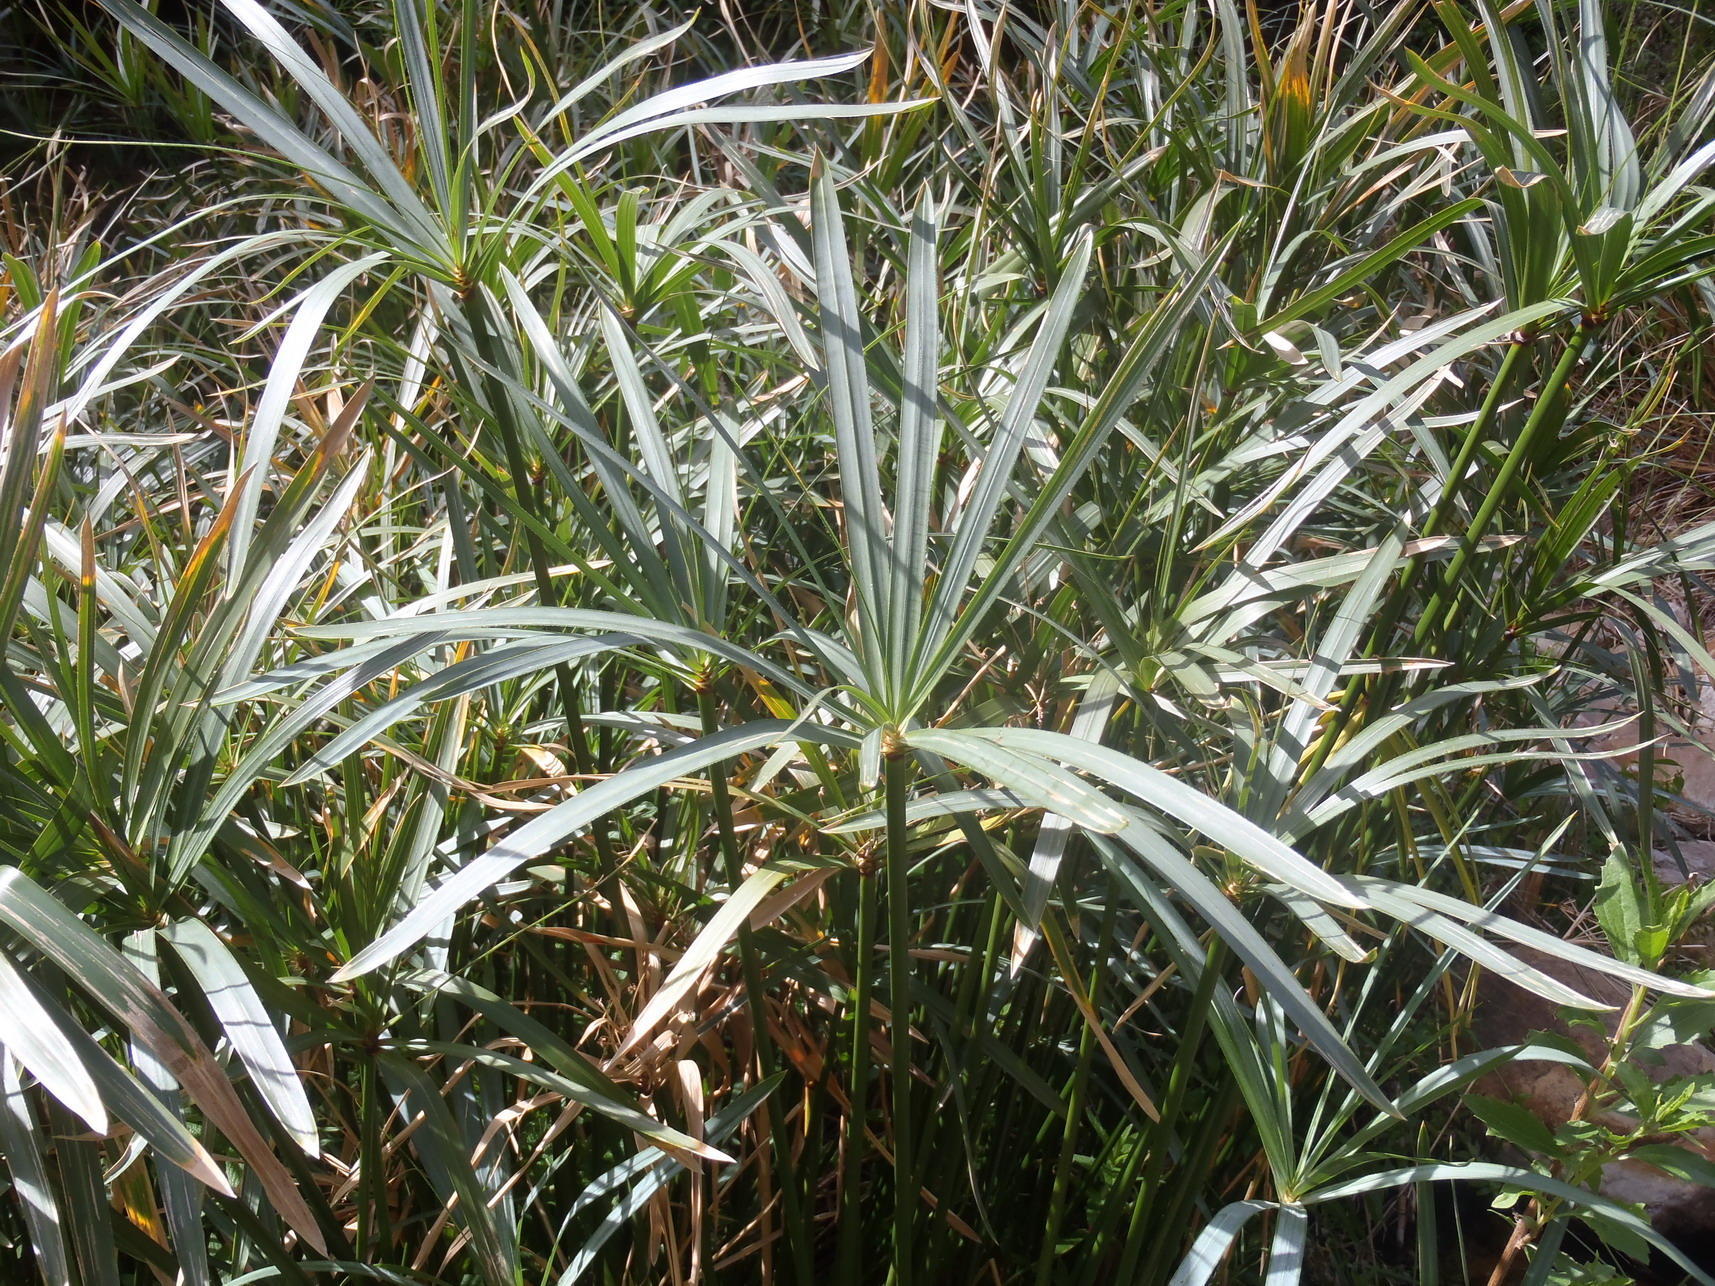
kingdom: Plantae
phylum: Tracheophyta
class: Liliopsida
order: Poales
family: Cyperaceae
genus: Cyperus
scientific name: Cyperus textilis
